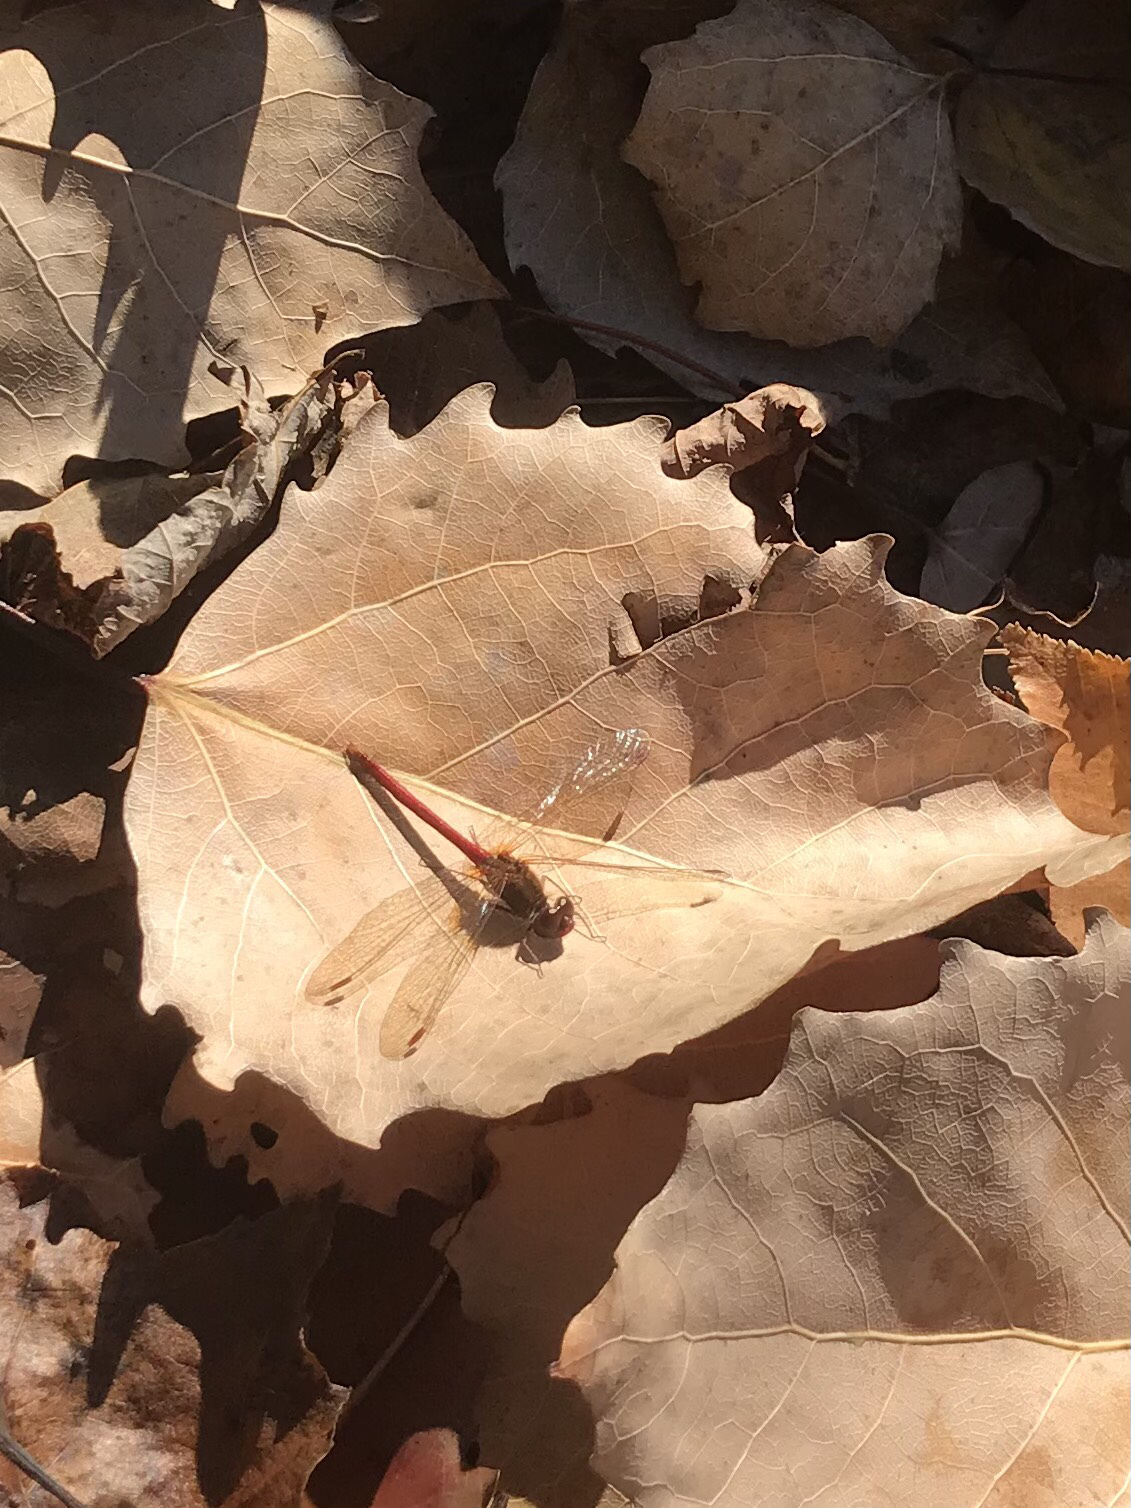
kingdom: Animalia
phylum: Arthropoda
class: Insecta
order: Odonata
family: Libellulidae
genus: Sympetrum
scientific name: Sympetrum vicinum
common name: Autumn meadowhawk
